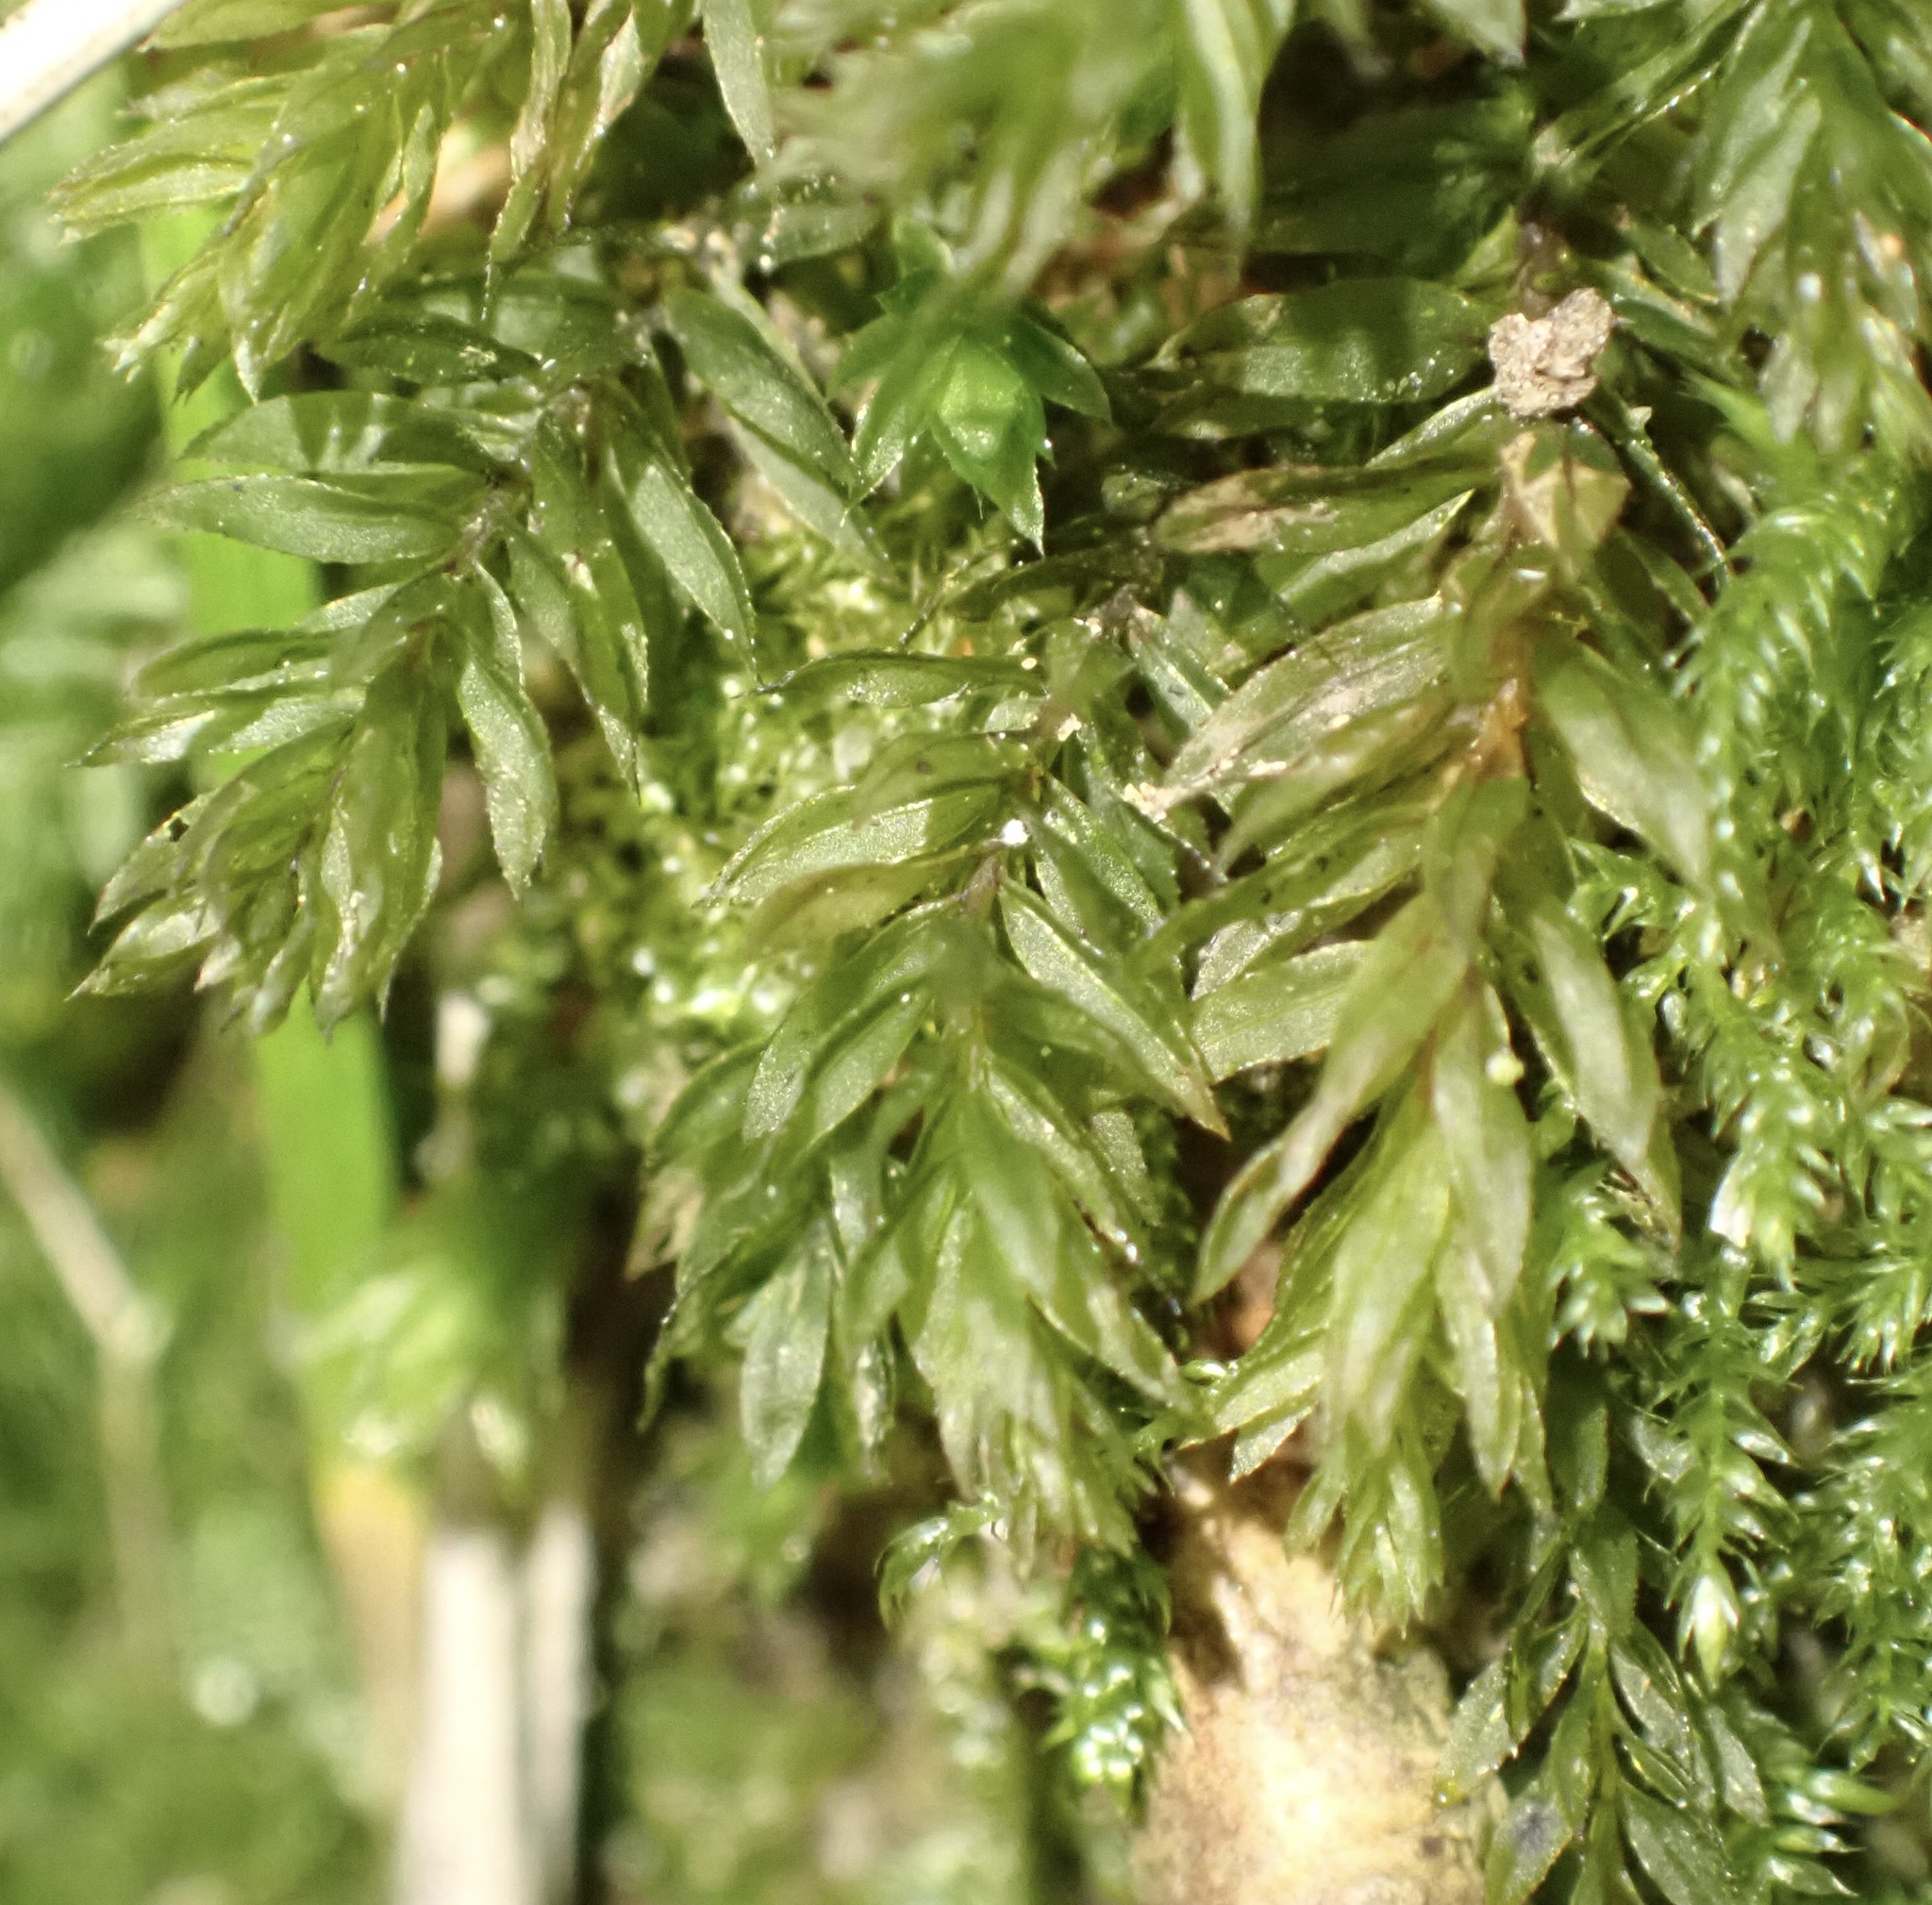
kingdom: Plantae
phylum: Bryophyta
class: Bryopsida
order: Bryales
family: Mniaceae
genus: Mnium
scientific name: Mnium hornum
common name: Swan's-neck leafy moss
